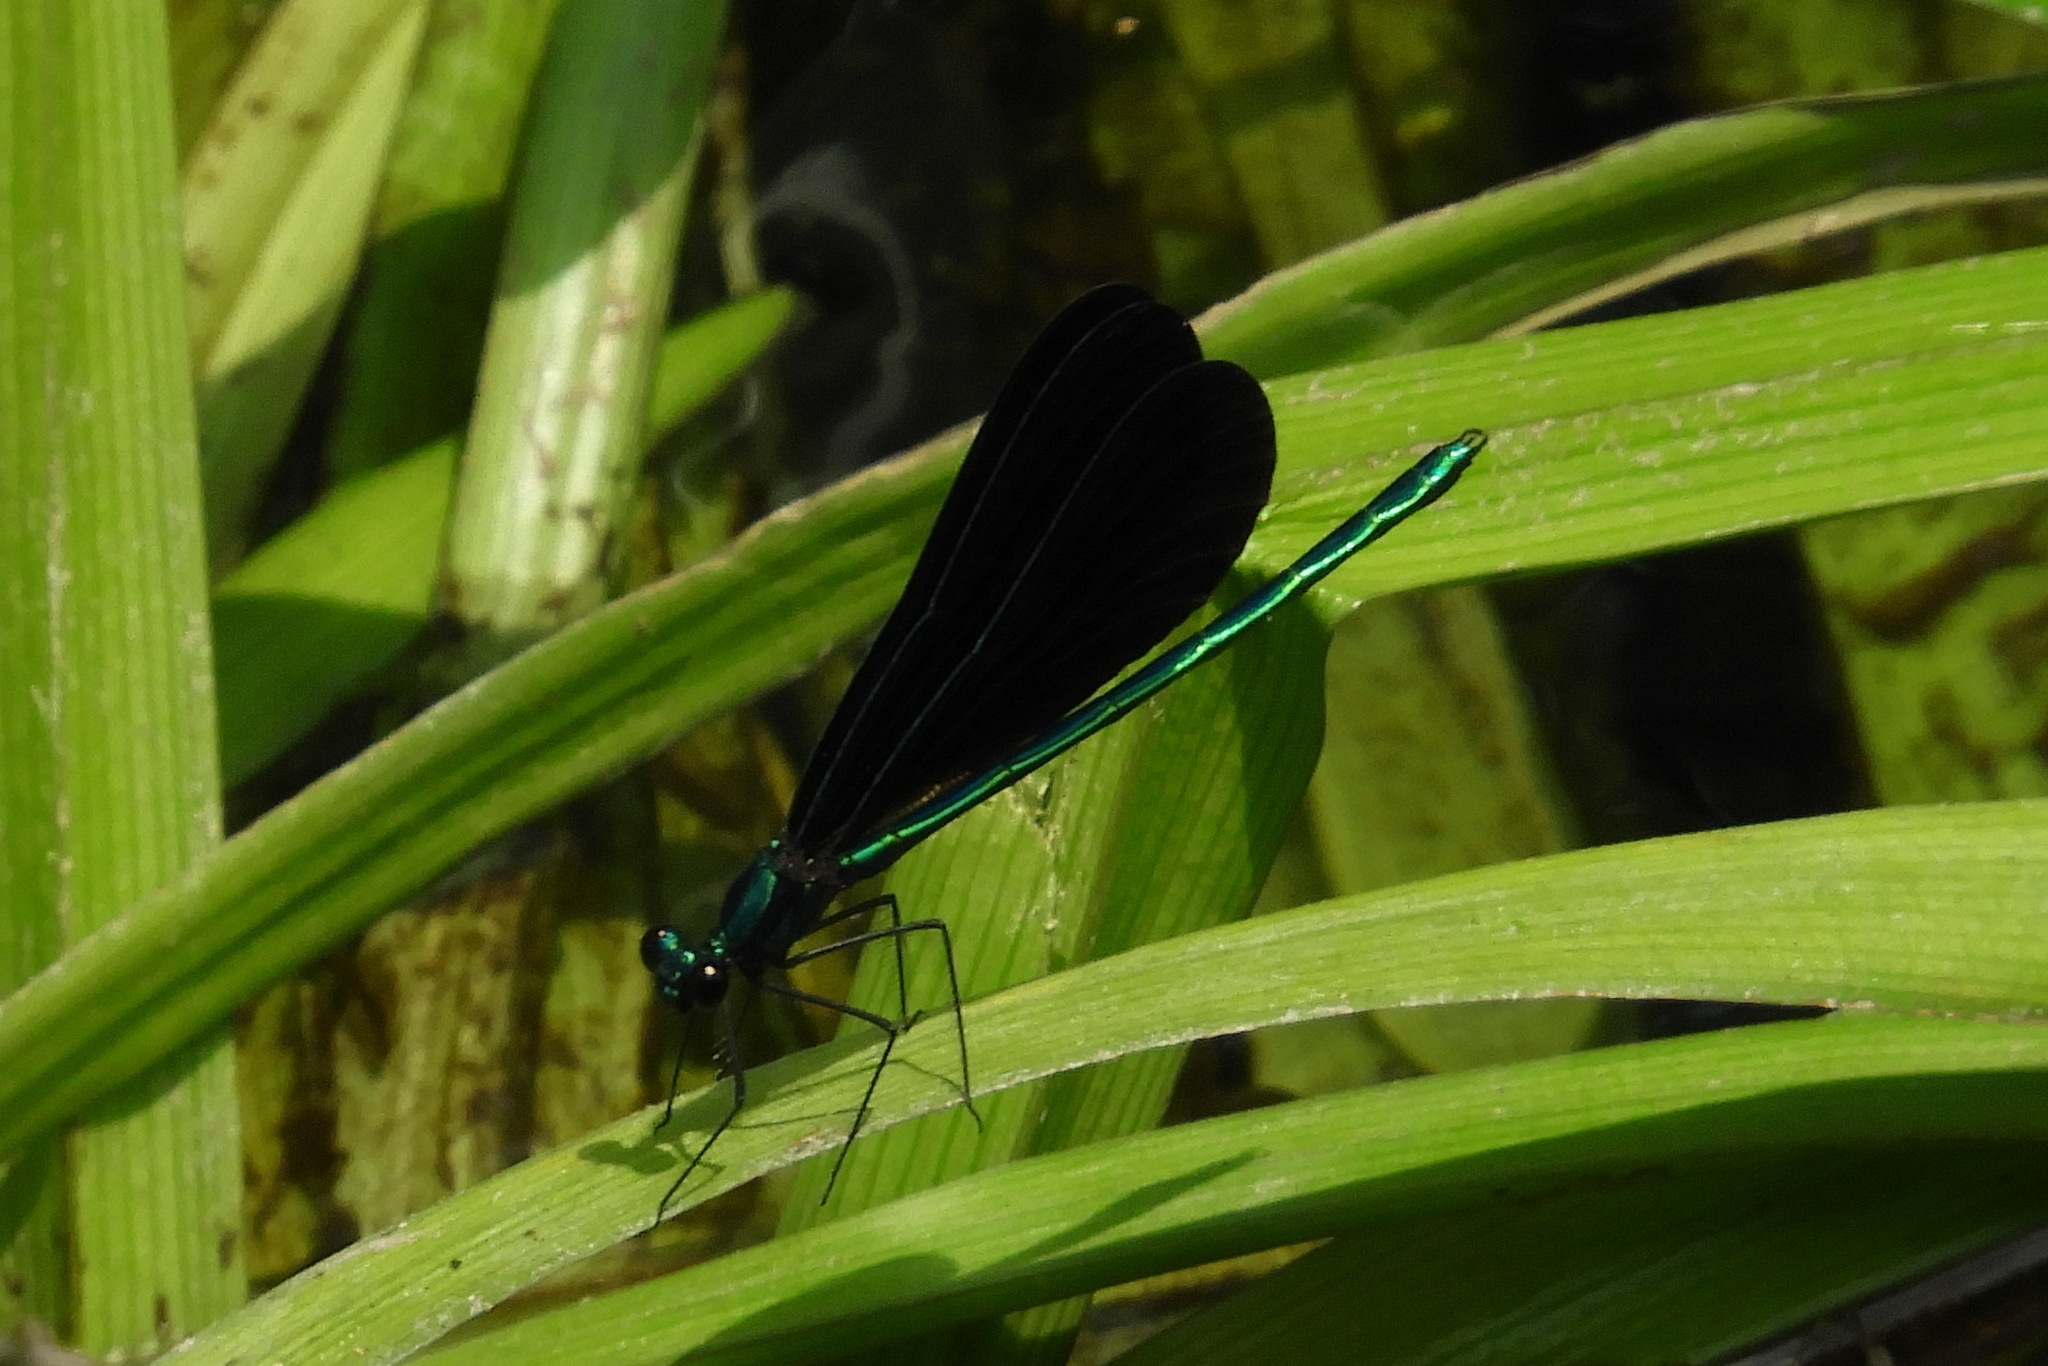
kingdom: Animalia
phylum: Arthropoda
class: Insecta
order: Odonata
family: Calopterygidae
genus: Calopteryx
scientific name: Calopteryx maculata
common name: Ebony jewelwing
